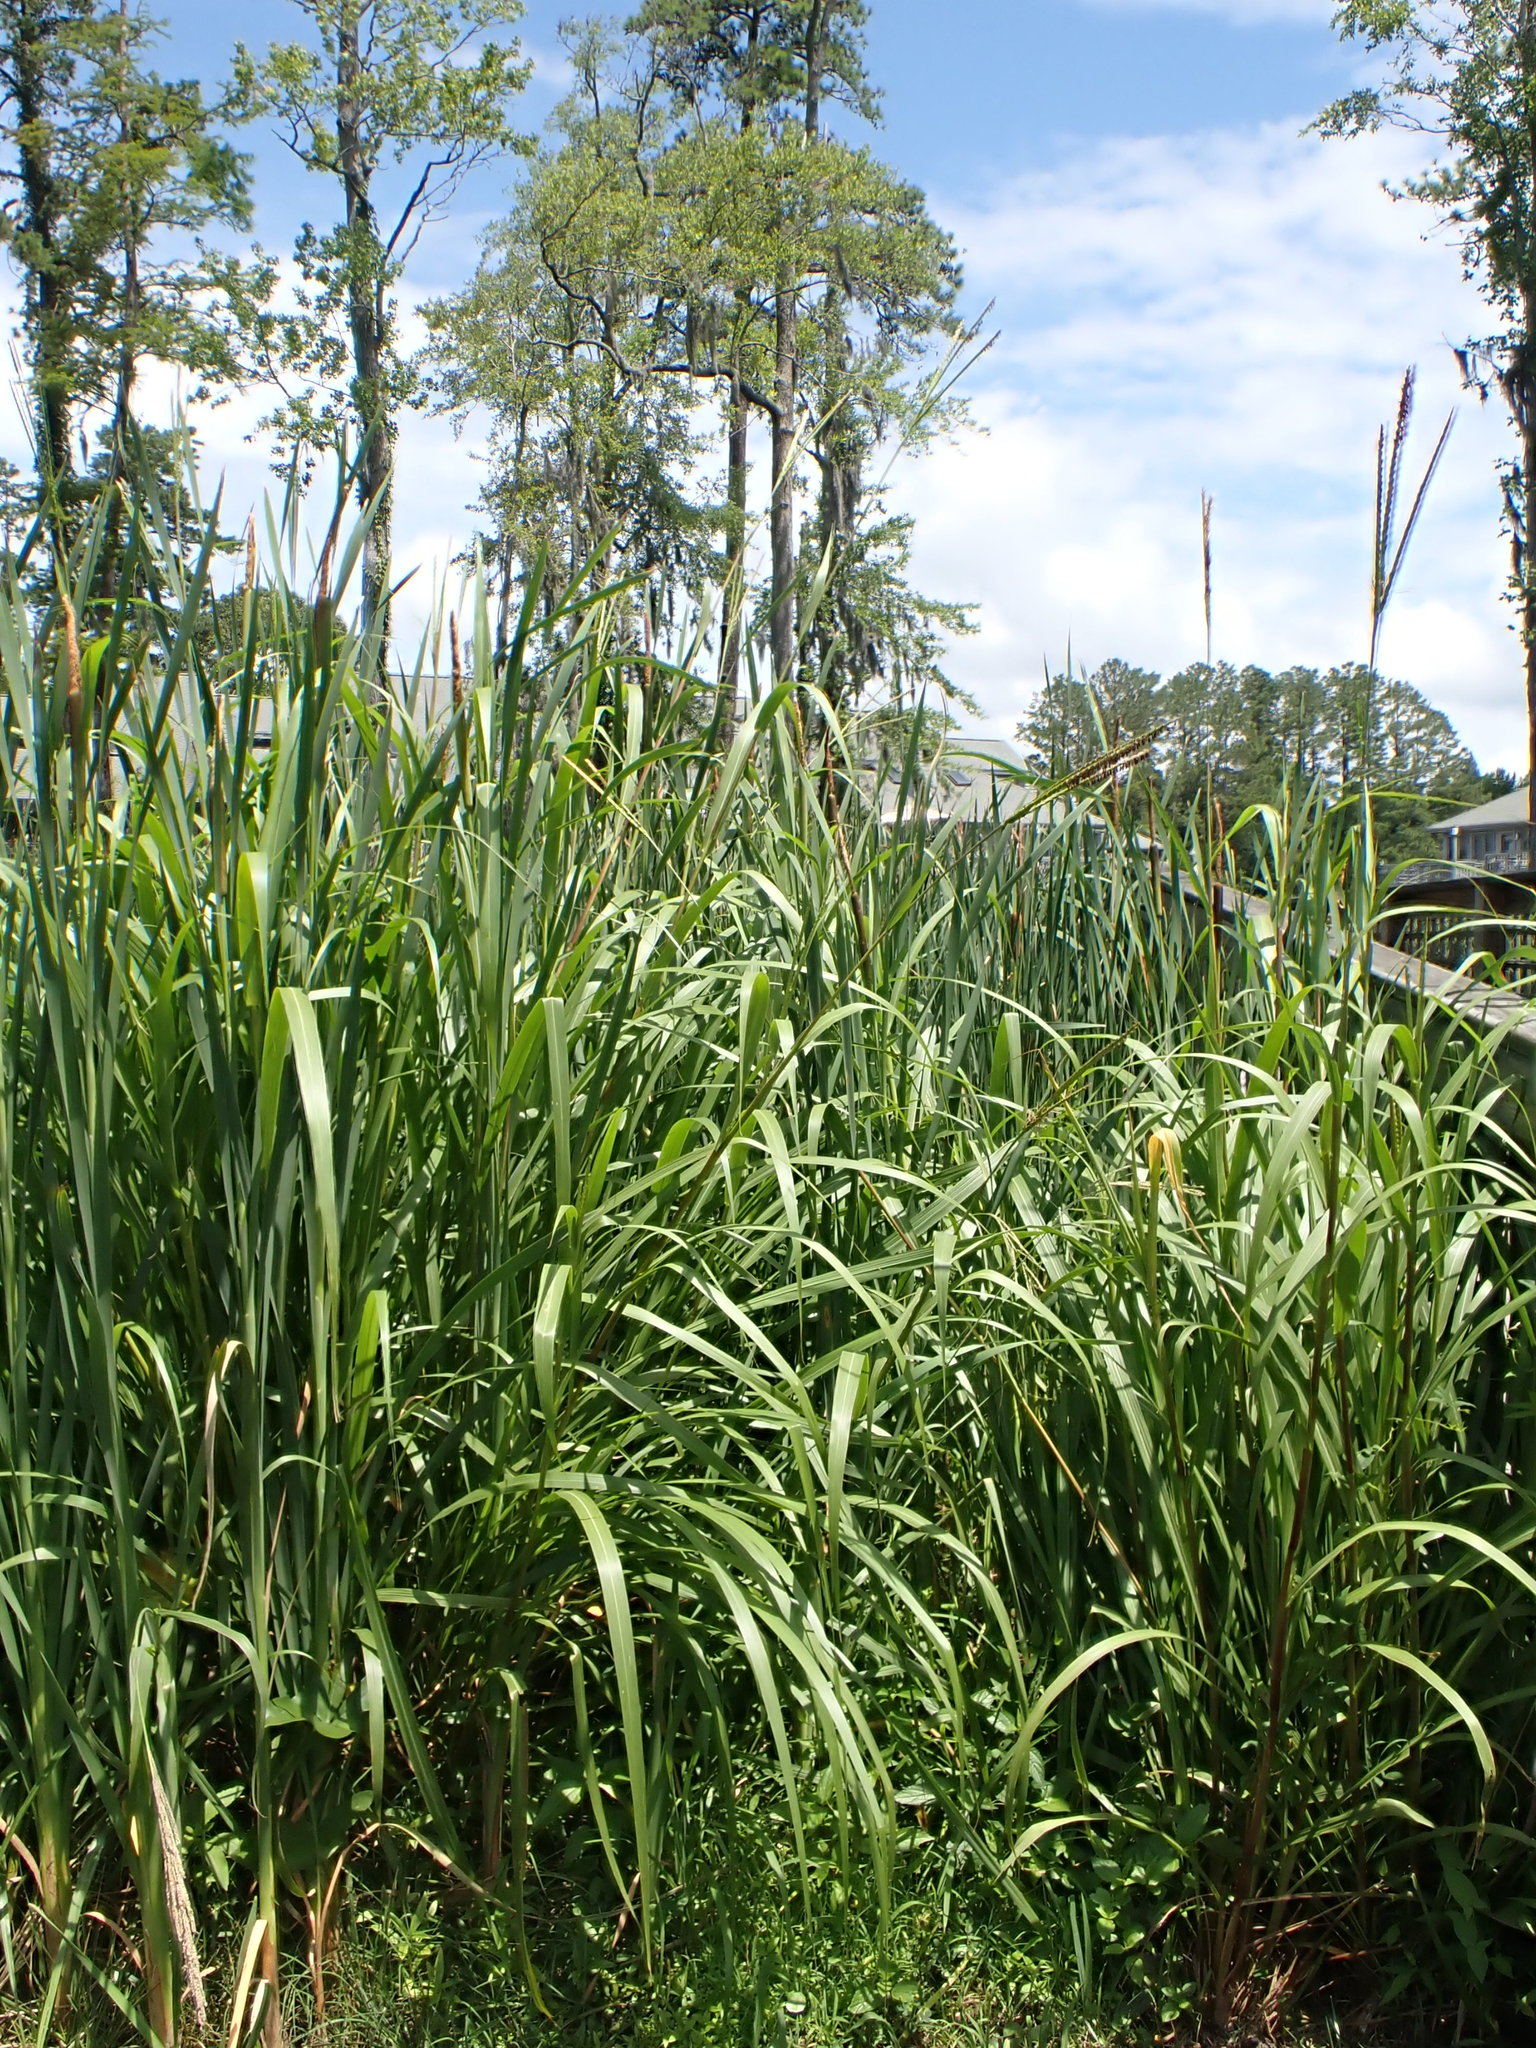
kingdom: Plantae
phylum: Tracheophyta
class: Liliopsida
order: Poales
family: Poaceae
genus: Tripsacum
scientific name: Tripsacum dactyloides
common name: Buffalo-grass
